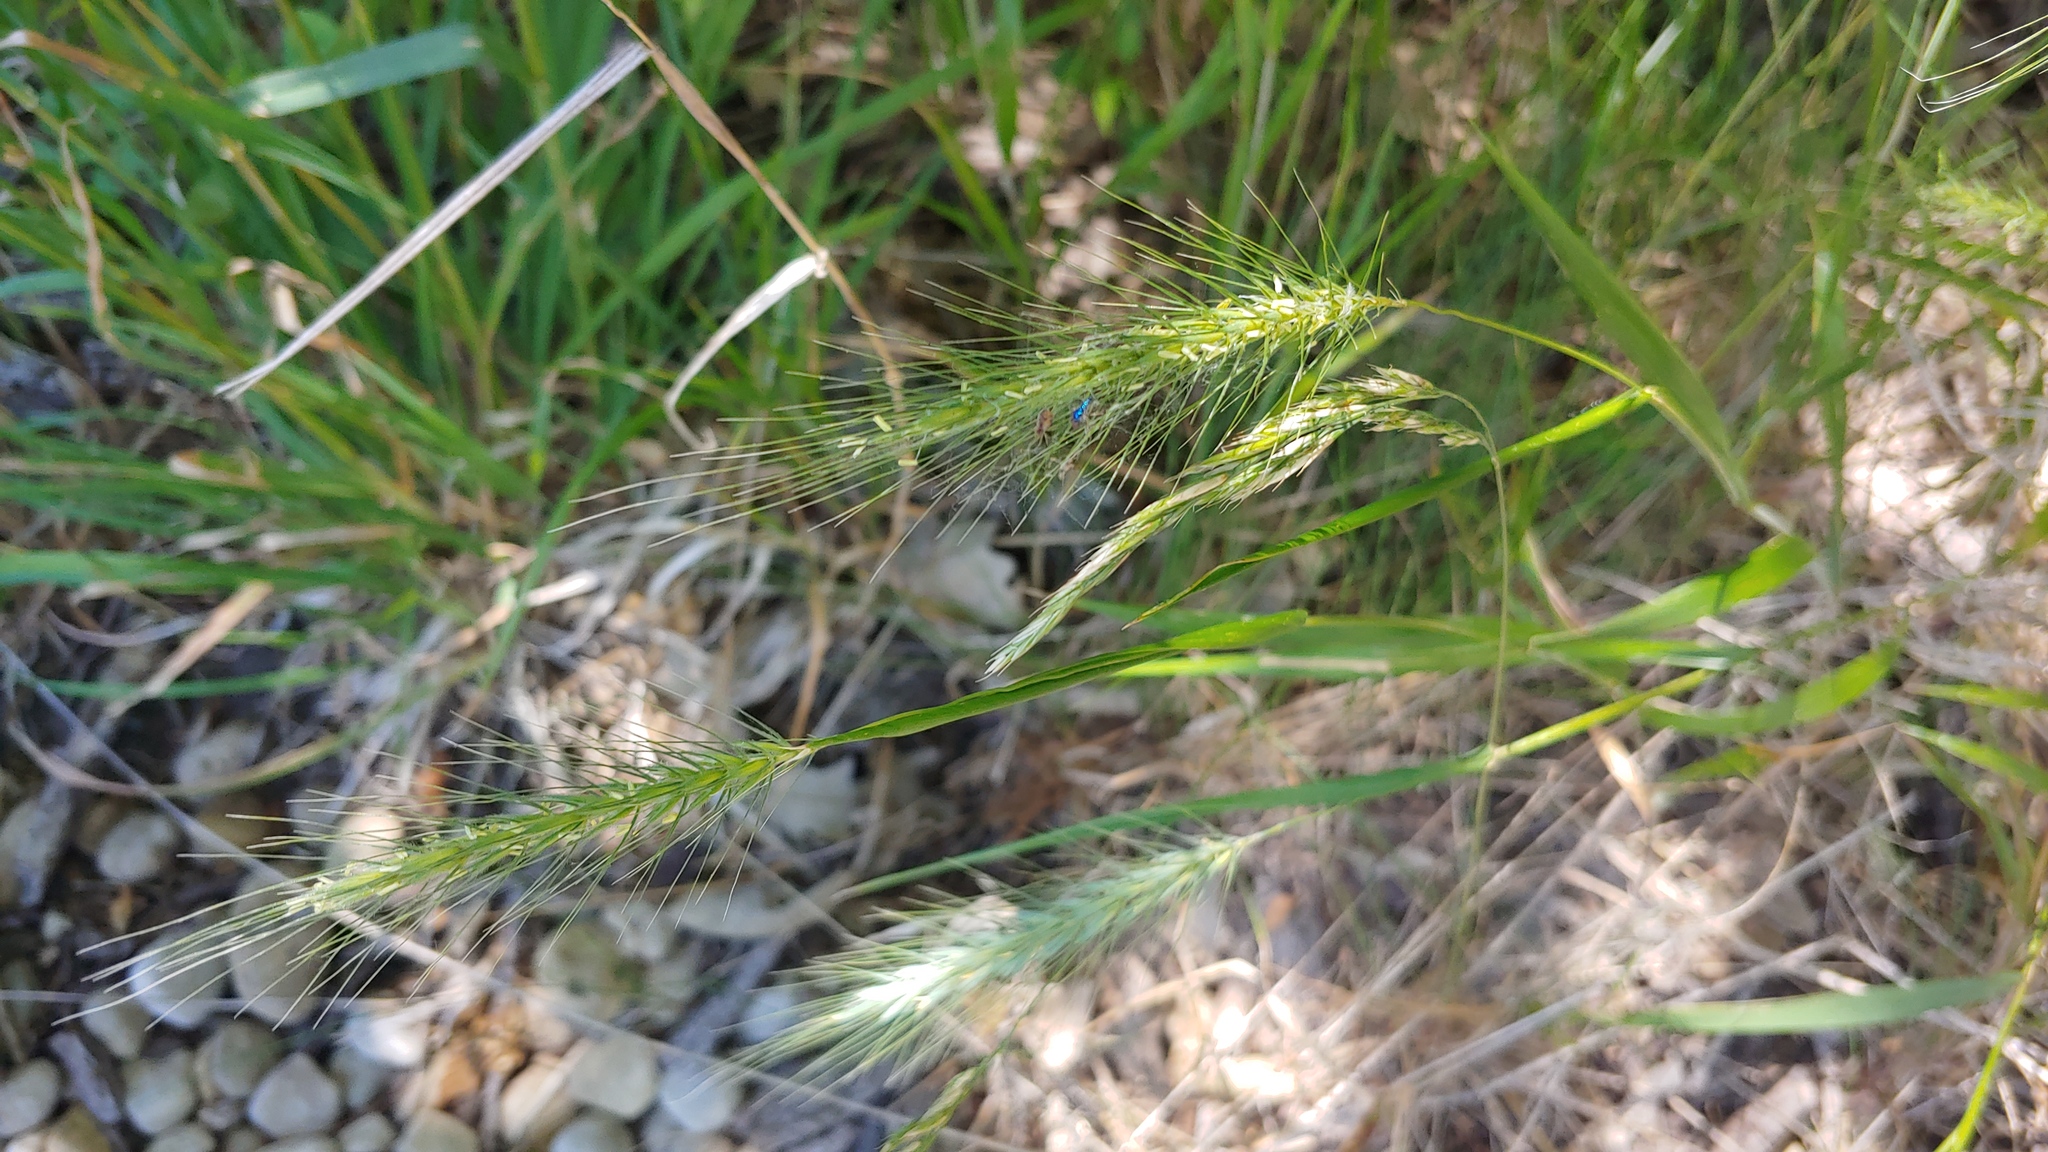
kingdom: Plantae
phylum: Tracheophyta
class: Liliopsida
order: Poales
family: Poaceae
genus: Elymus
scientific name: Elymus villosus
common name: Downy wild rye
